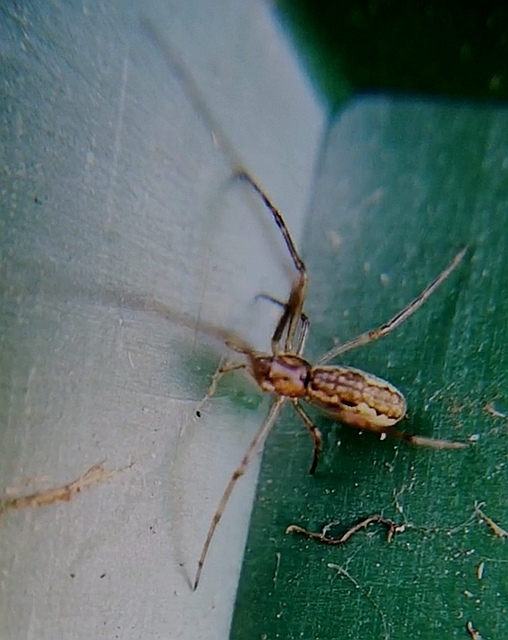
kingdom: Animalia
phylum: Arthropoda
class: Arachnida
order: Araneae
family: Tetragnathidae
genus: Tetragnatha
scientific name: Tetragnatha
